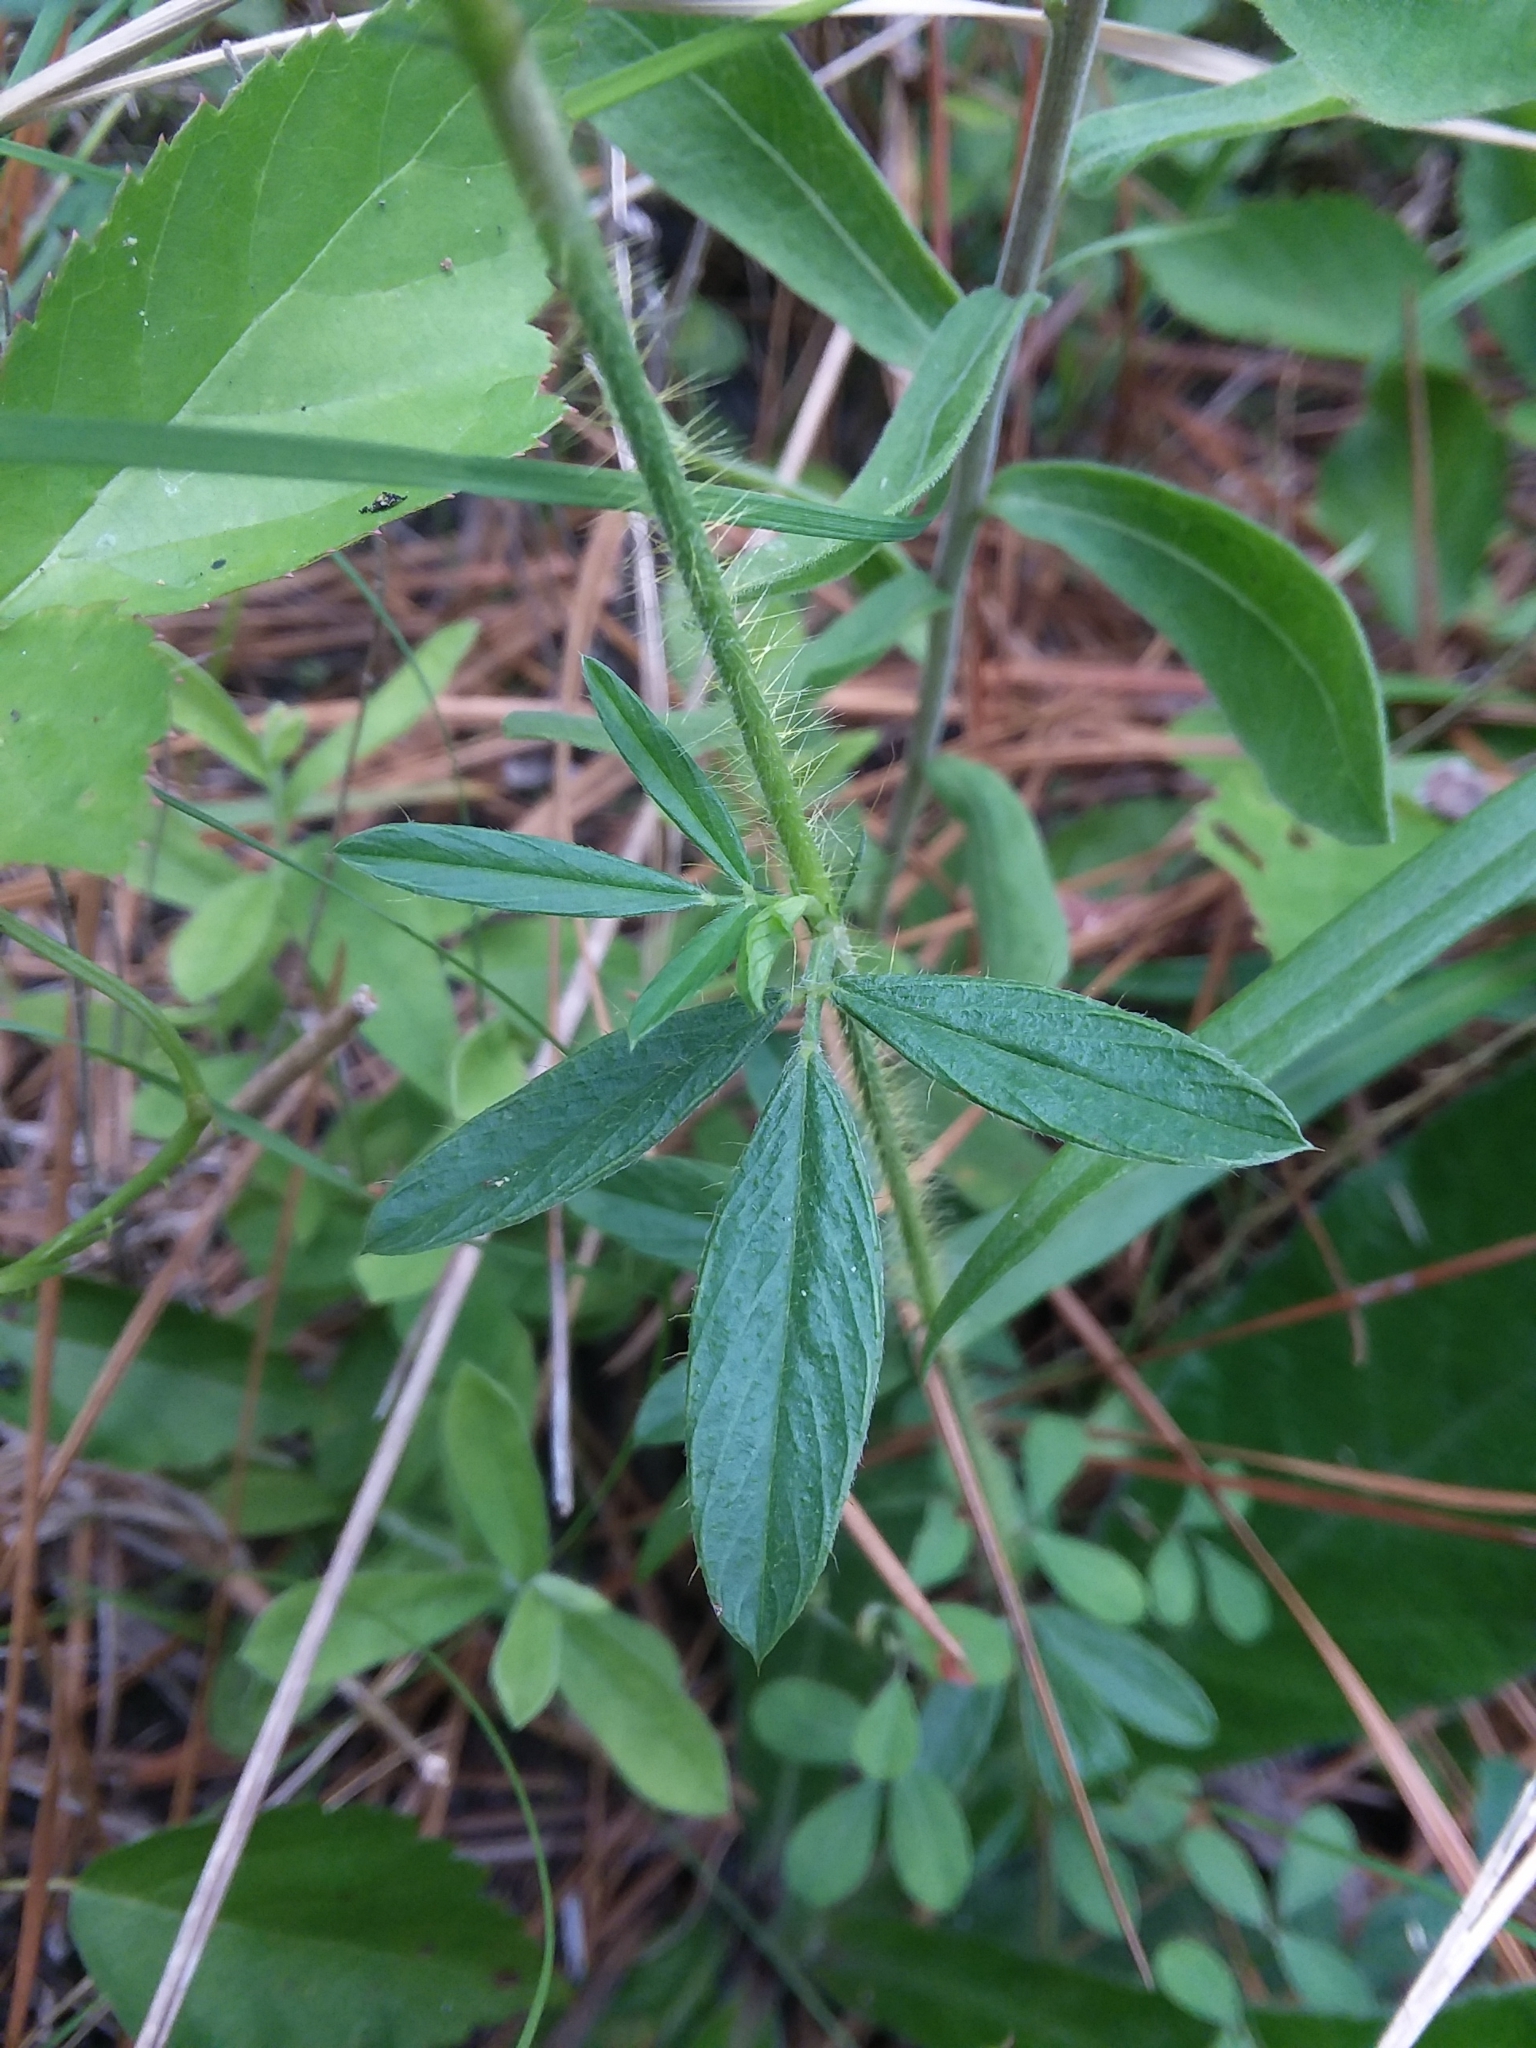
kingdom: Plantae
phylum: Tracheophyta
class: Magnoliopsida
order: Fabales
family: Fabaceae
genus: Stylosanthes
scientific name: Stylosanthes biflora
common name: Two-flower pencil-flower
